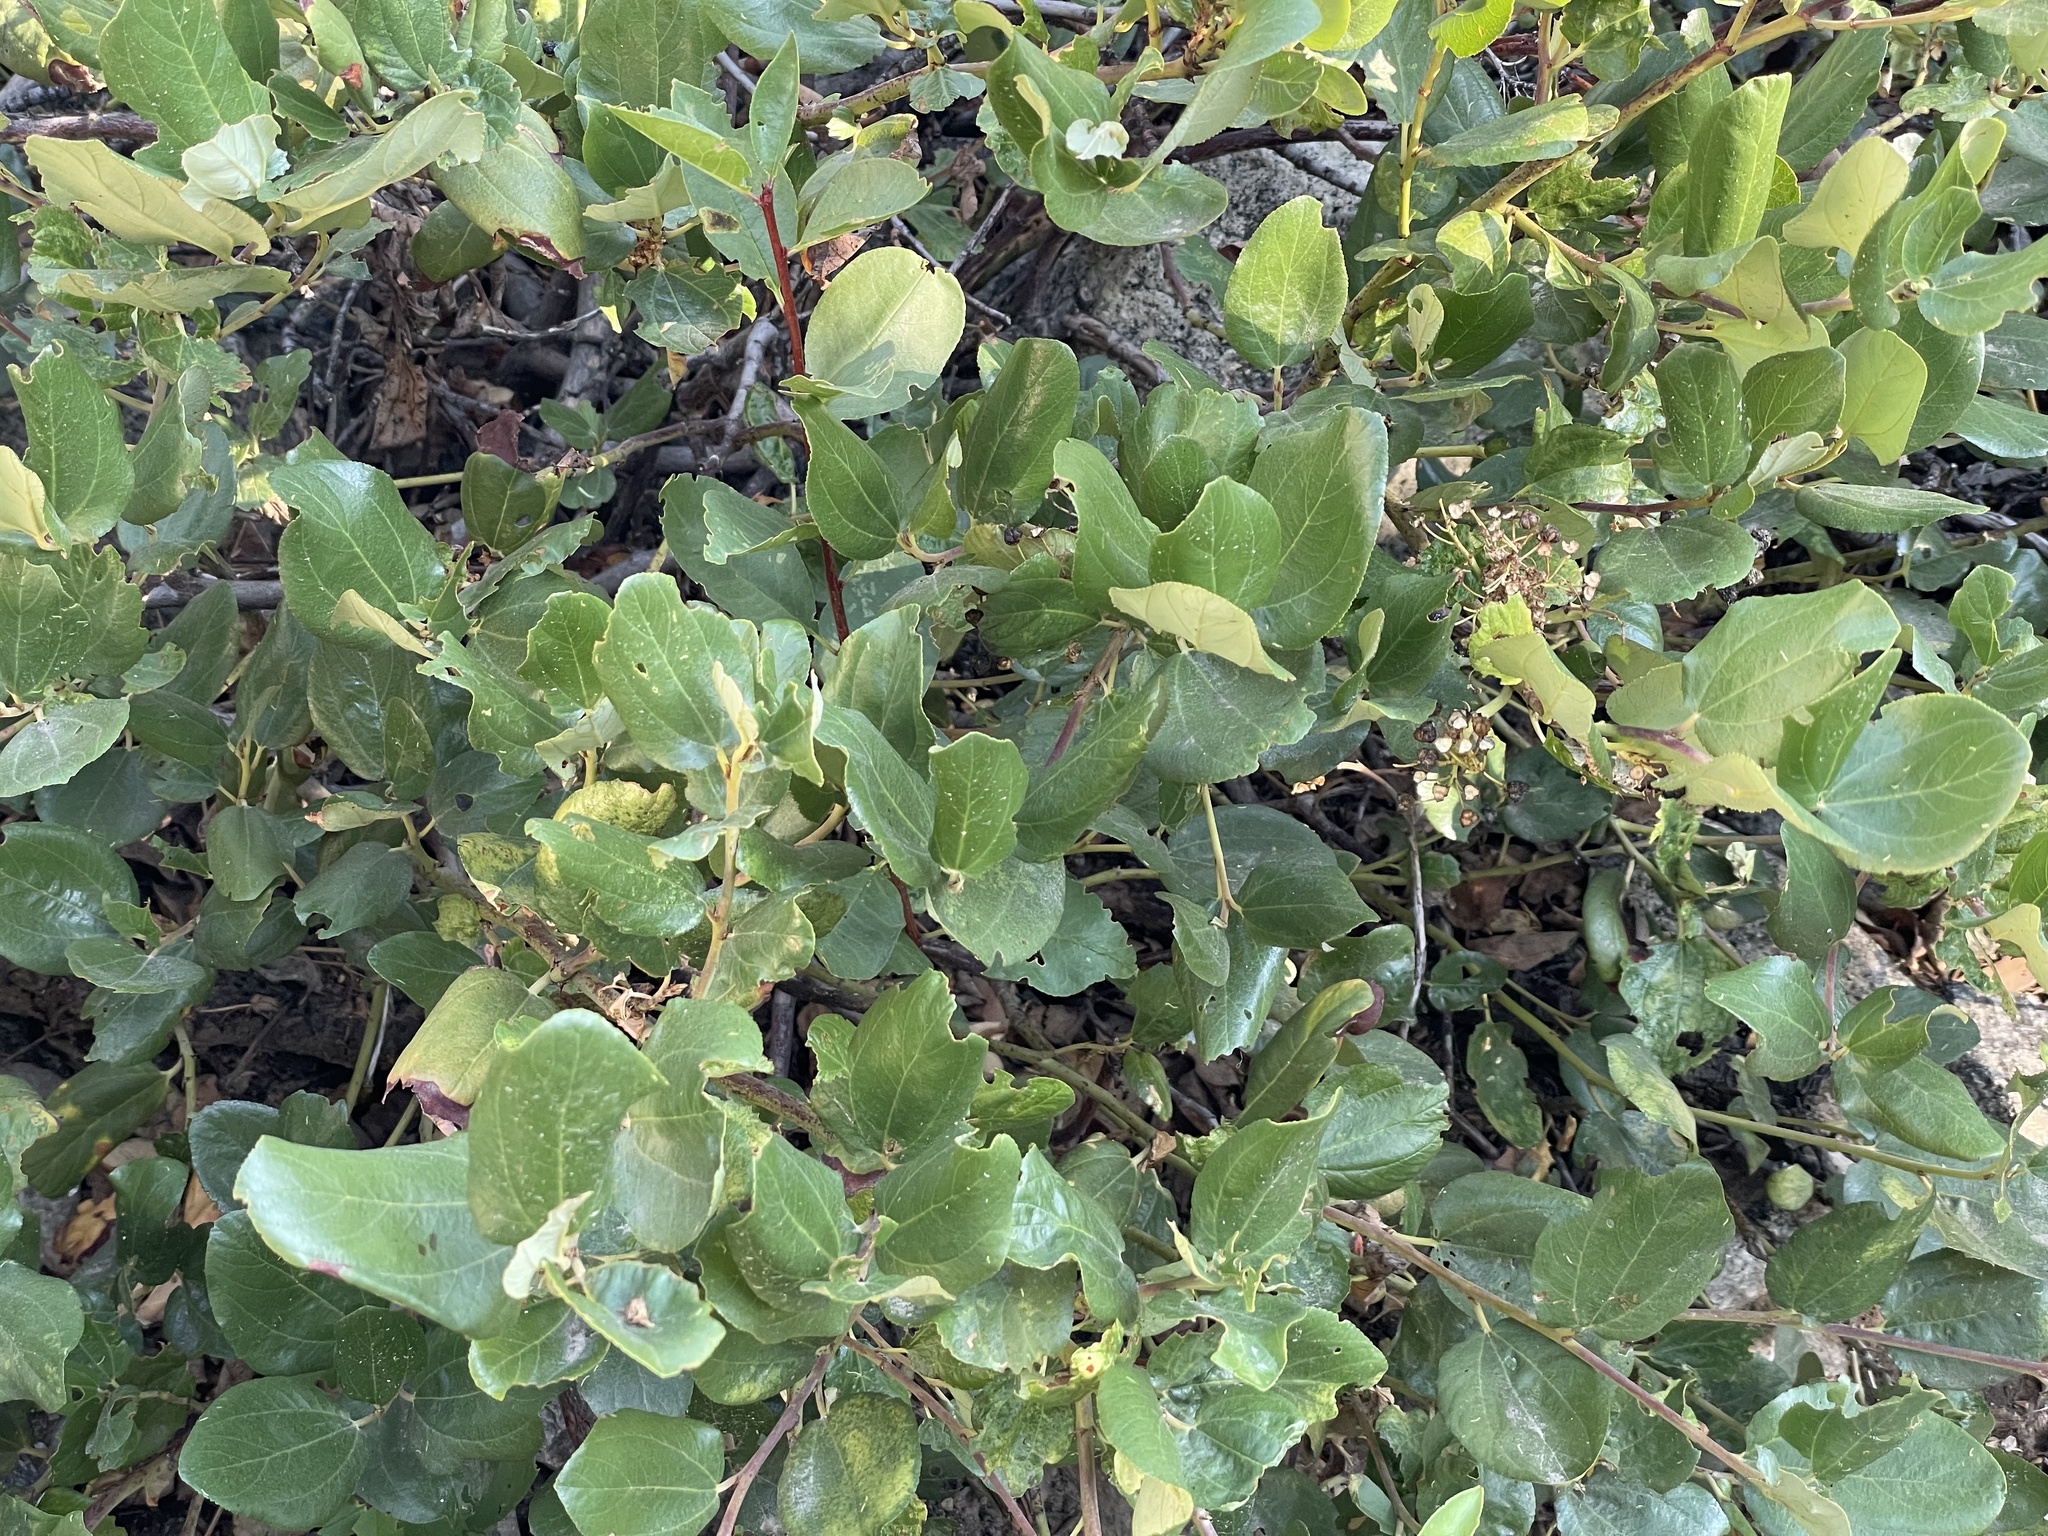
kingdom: Plantae
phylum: Tracheophyta
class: Magnoliopsida
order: Rosales
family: Rhamnaceae
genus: Ceanothus
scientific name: Ceanothus velutinus
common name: Snowbrush
